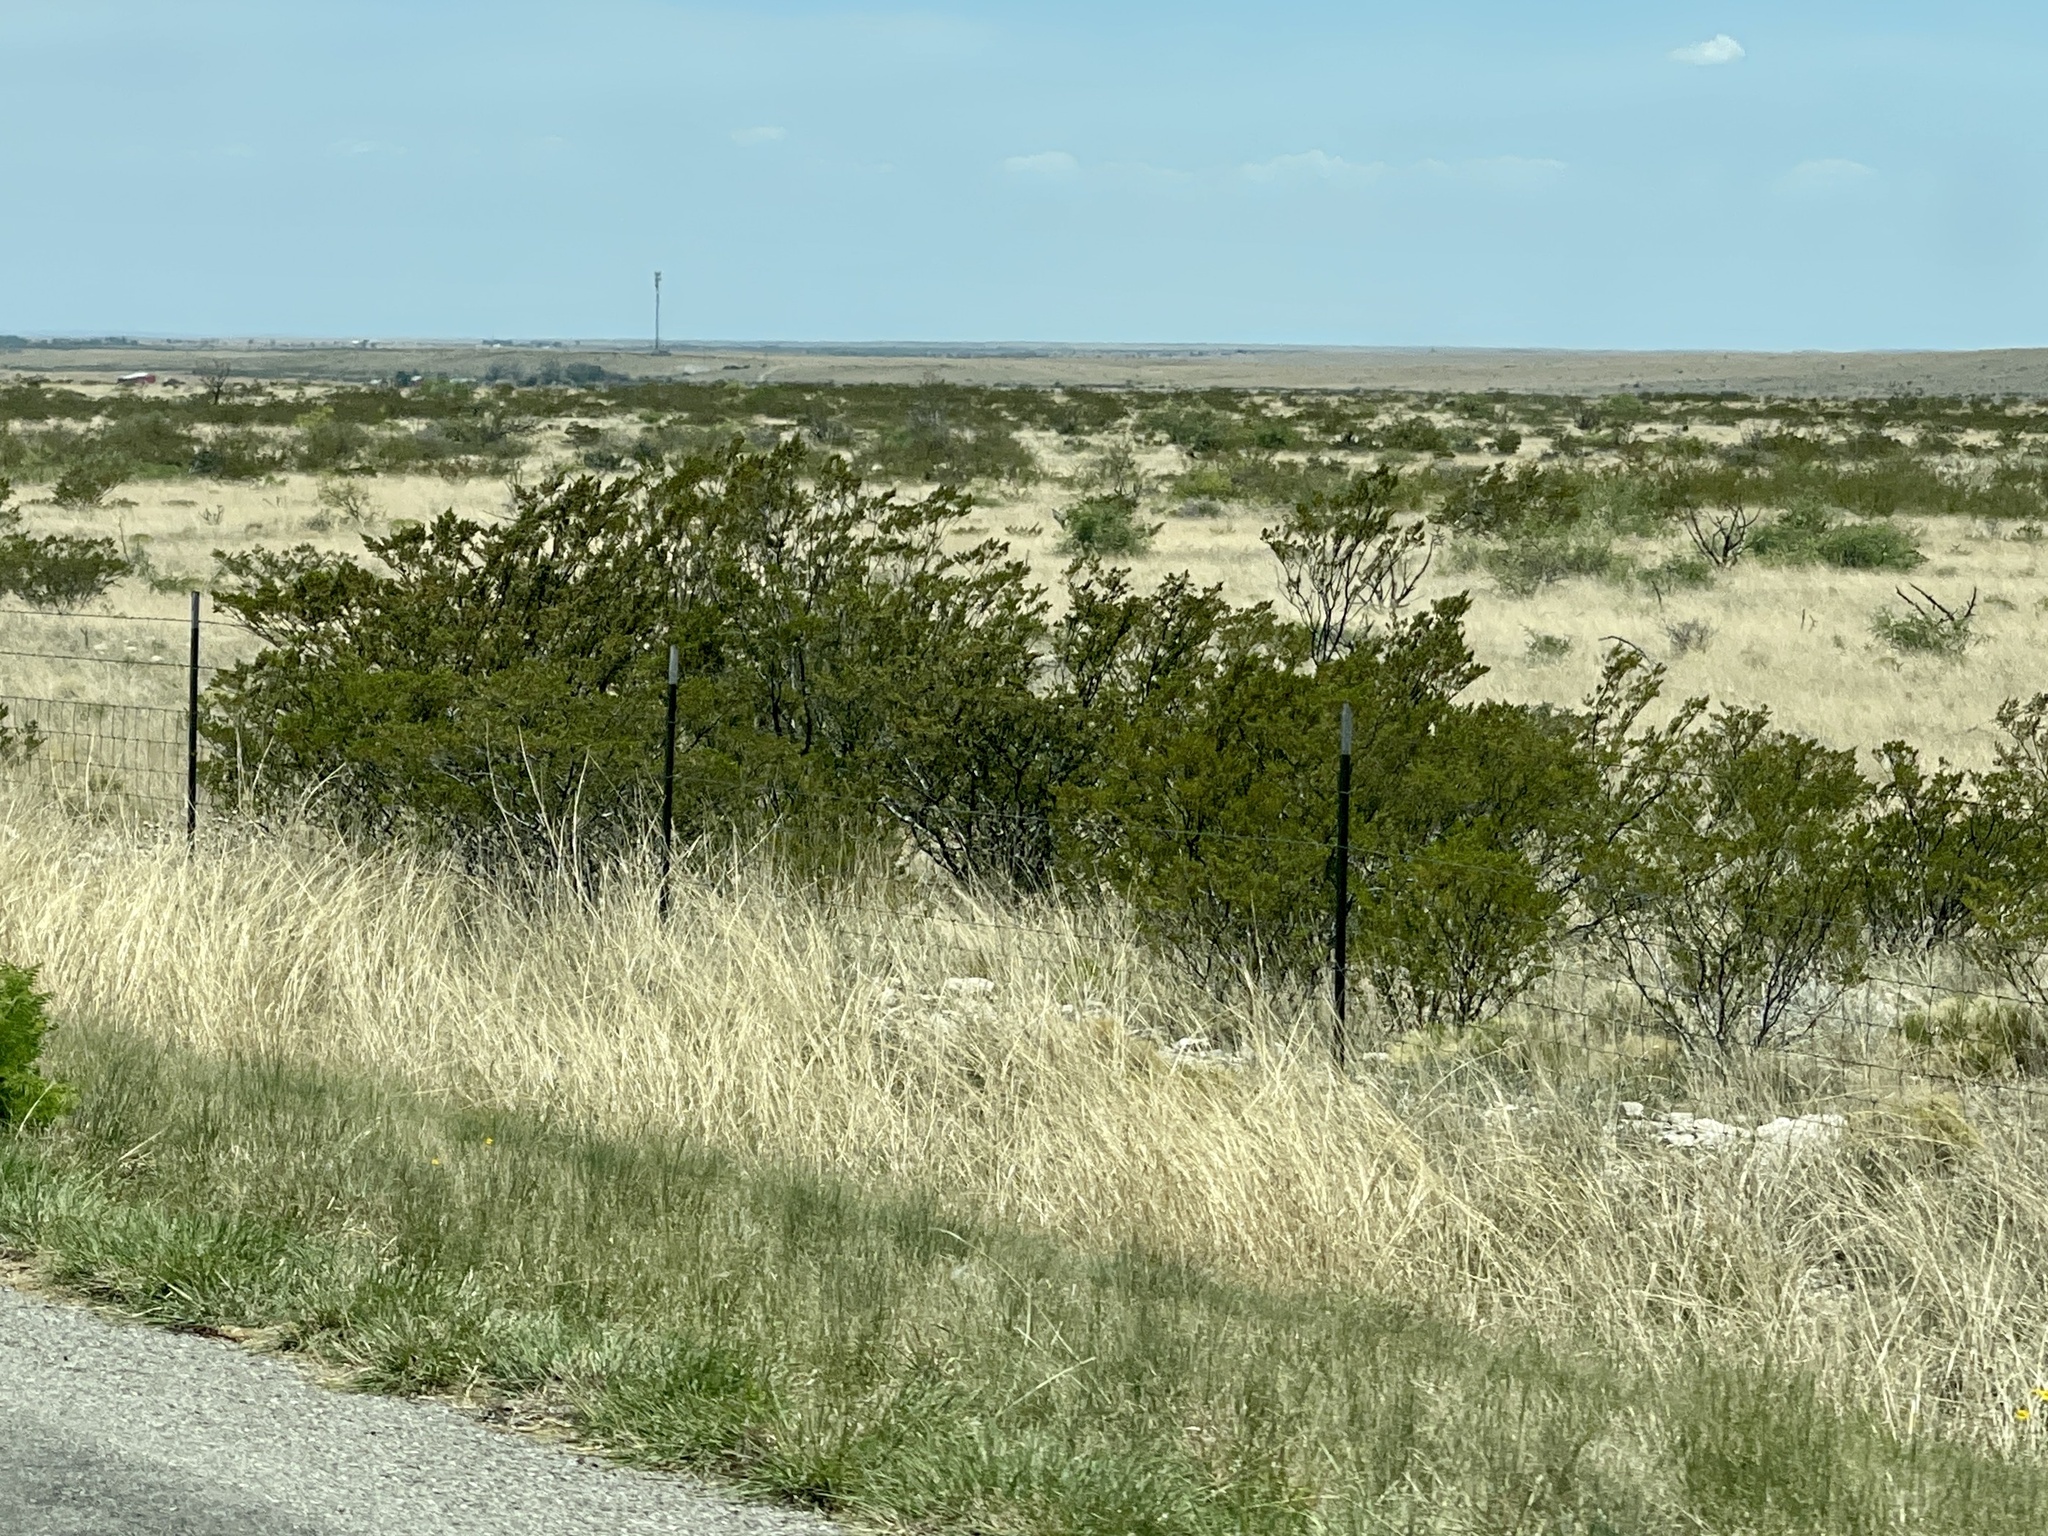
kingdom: Plantae
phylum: Tracheophyta
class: Magnoliopsida
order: Zygophyllales
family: Zygophyllaceae
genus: Larrea
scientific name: Larrea tridentata
